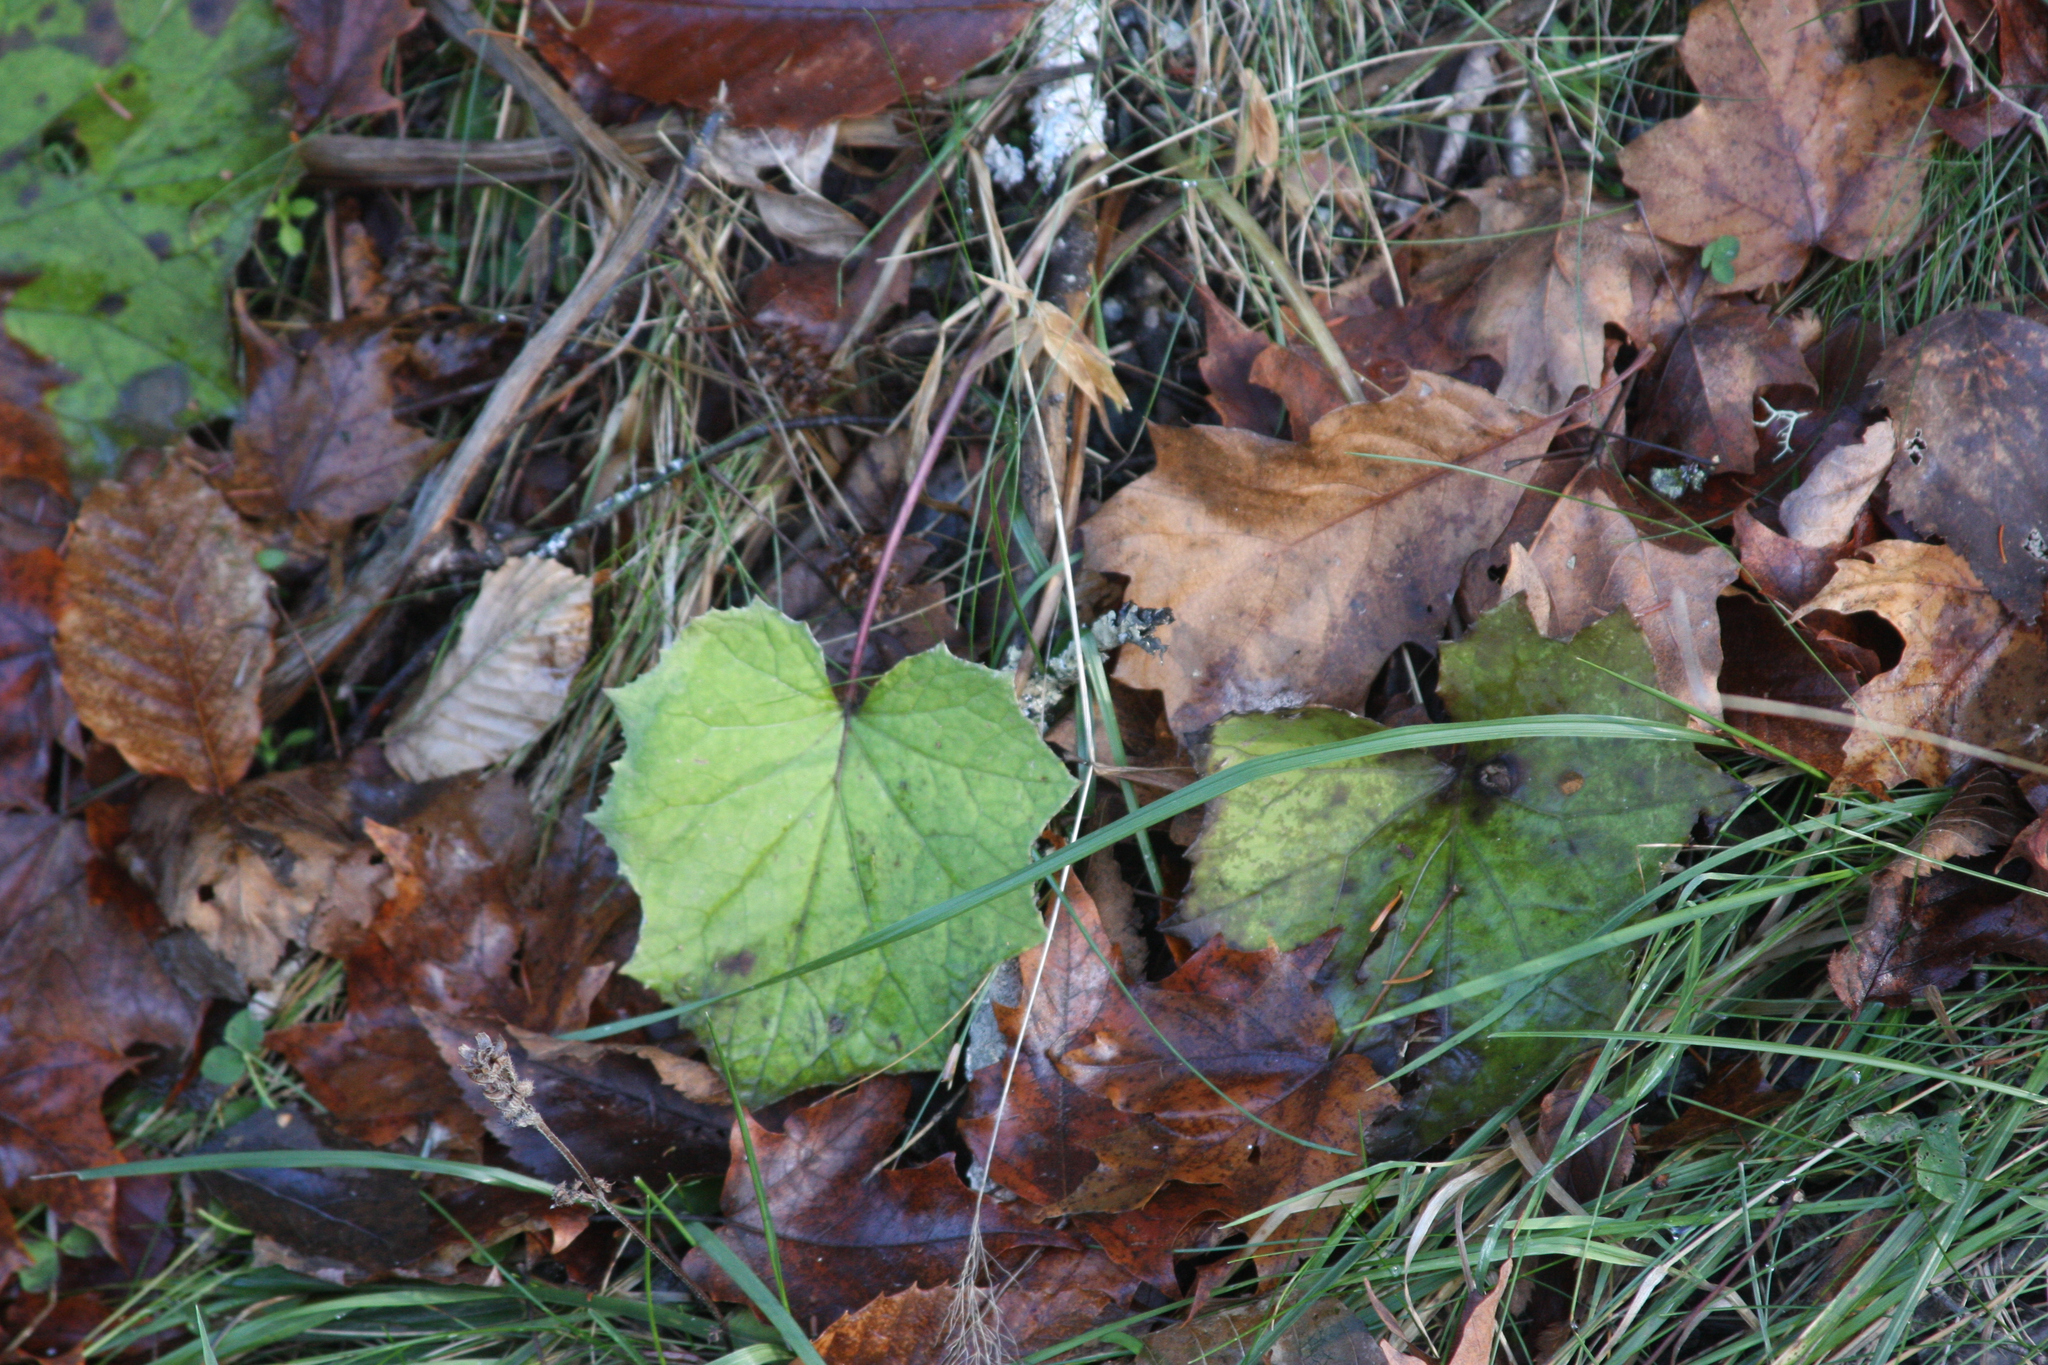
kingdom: Plantae
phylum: Tracheophyta
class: Magnoliopsida
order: Asterales
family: Asteraceae
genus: Tussilago
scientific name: Tussilago farfara
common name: Coltsfoot
